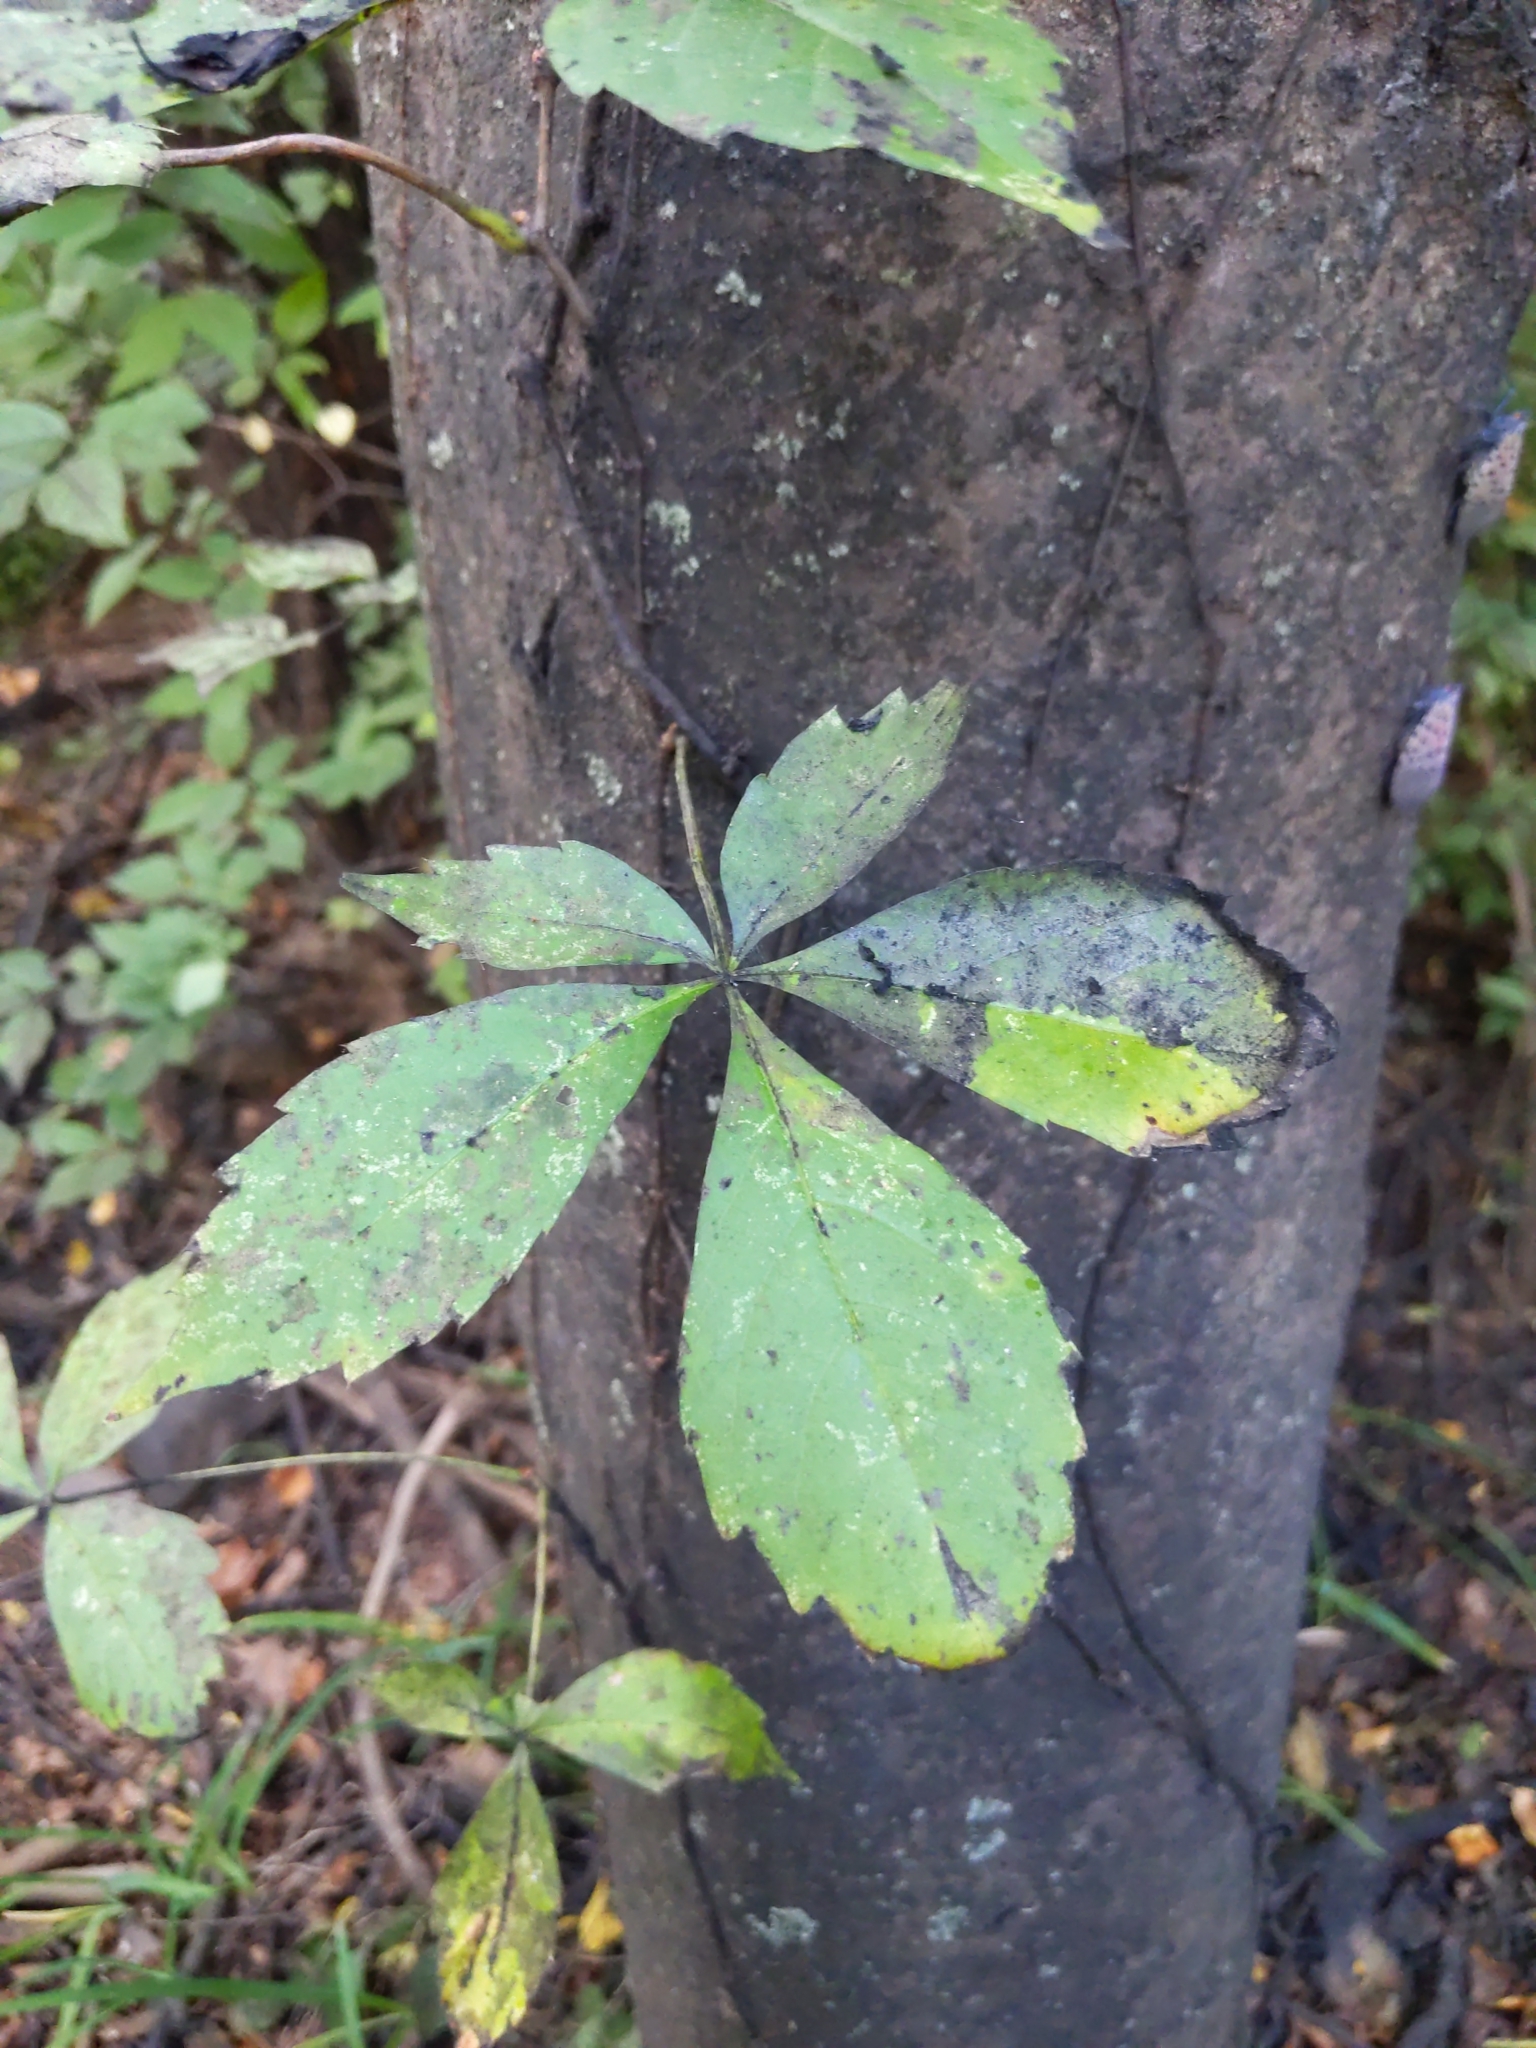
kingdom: Plantae
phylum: Tracheophyta
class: Magnoliopsida
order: Vitales
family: Vitaceae
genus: Parthenocissus
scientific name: Parthenocissus quinquefolia
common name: Virginia-creeper
